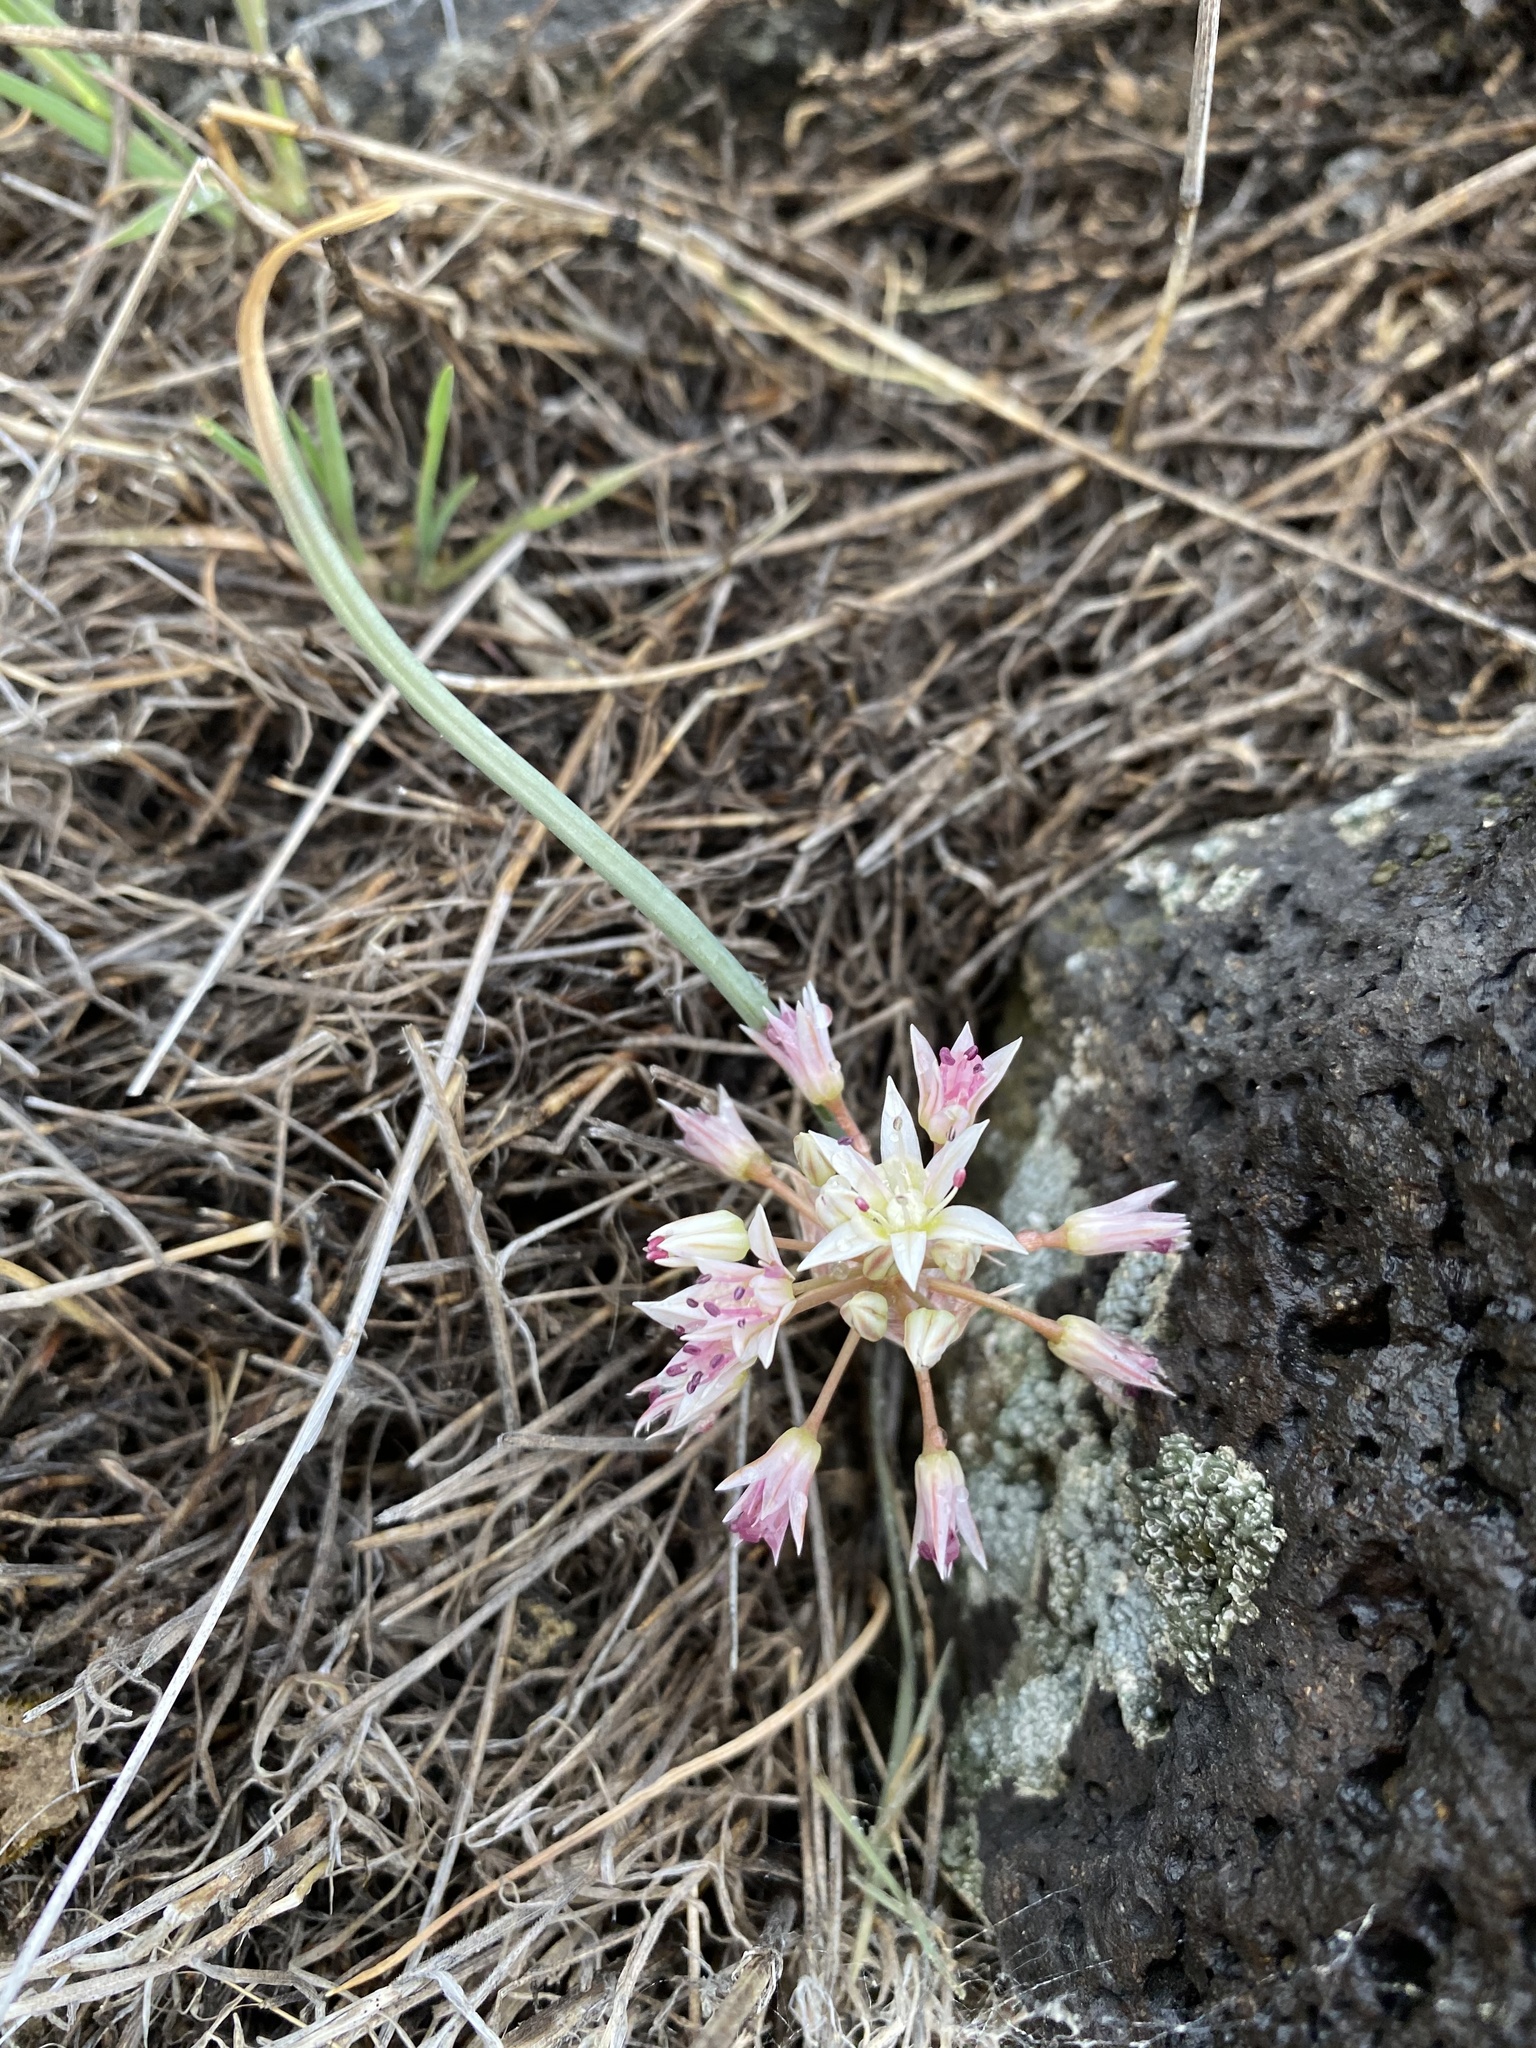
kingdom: Plantae
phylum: Tracheophyta
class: Liliopsida
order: Asparagales
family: Amaryllidaceae
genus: Allium
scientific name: Allium nevadense
